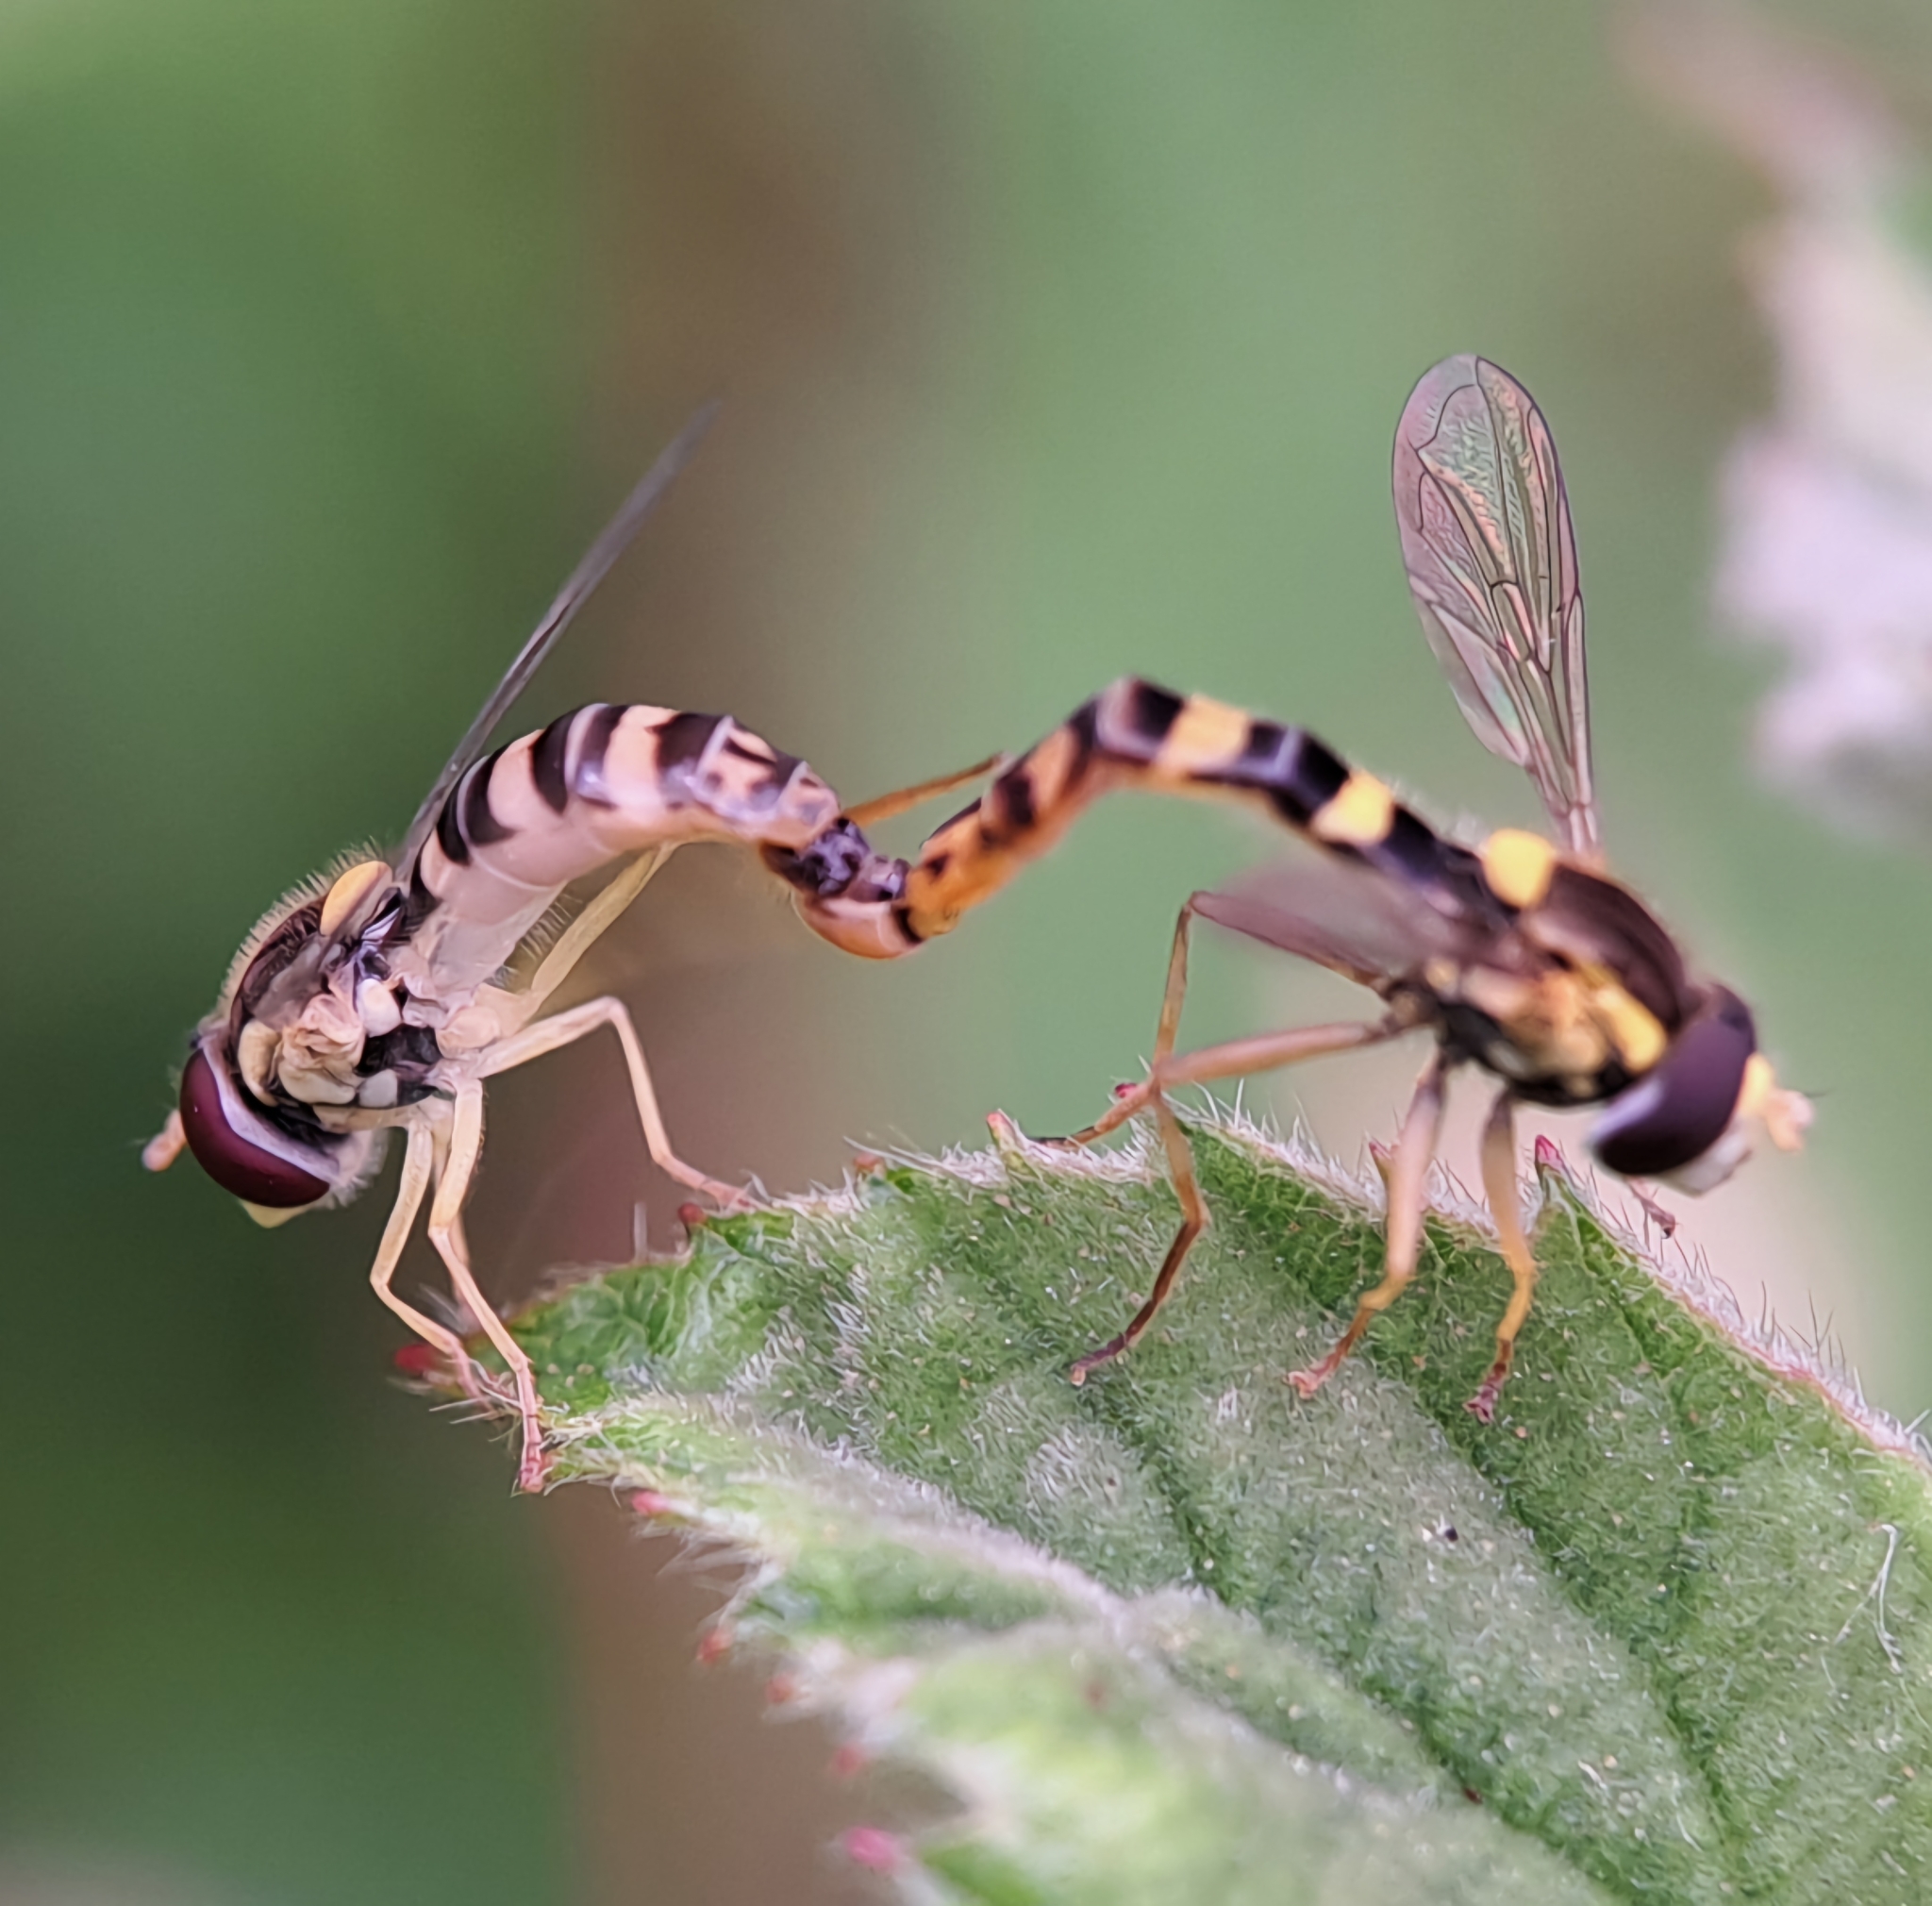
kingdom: Animalia
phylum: Arthropoda
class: Insecta
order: Diptera
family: Syrphidae
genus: Sphaerophoria
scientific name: Sphaerophoria scripta
